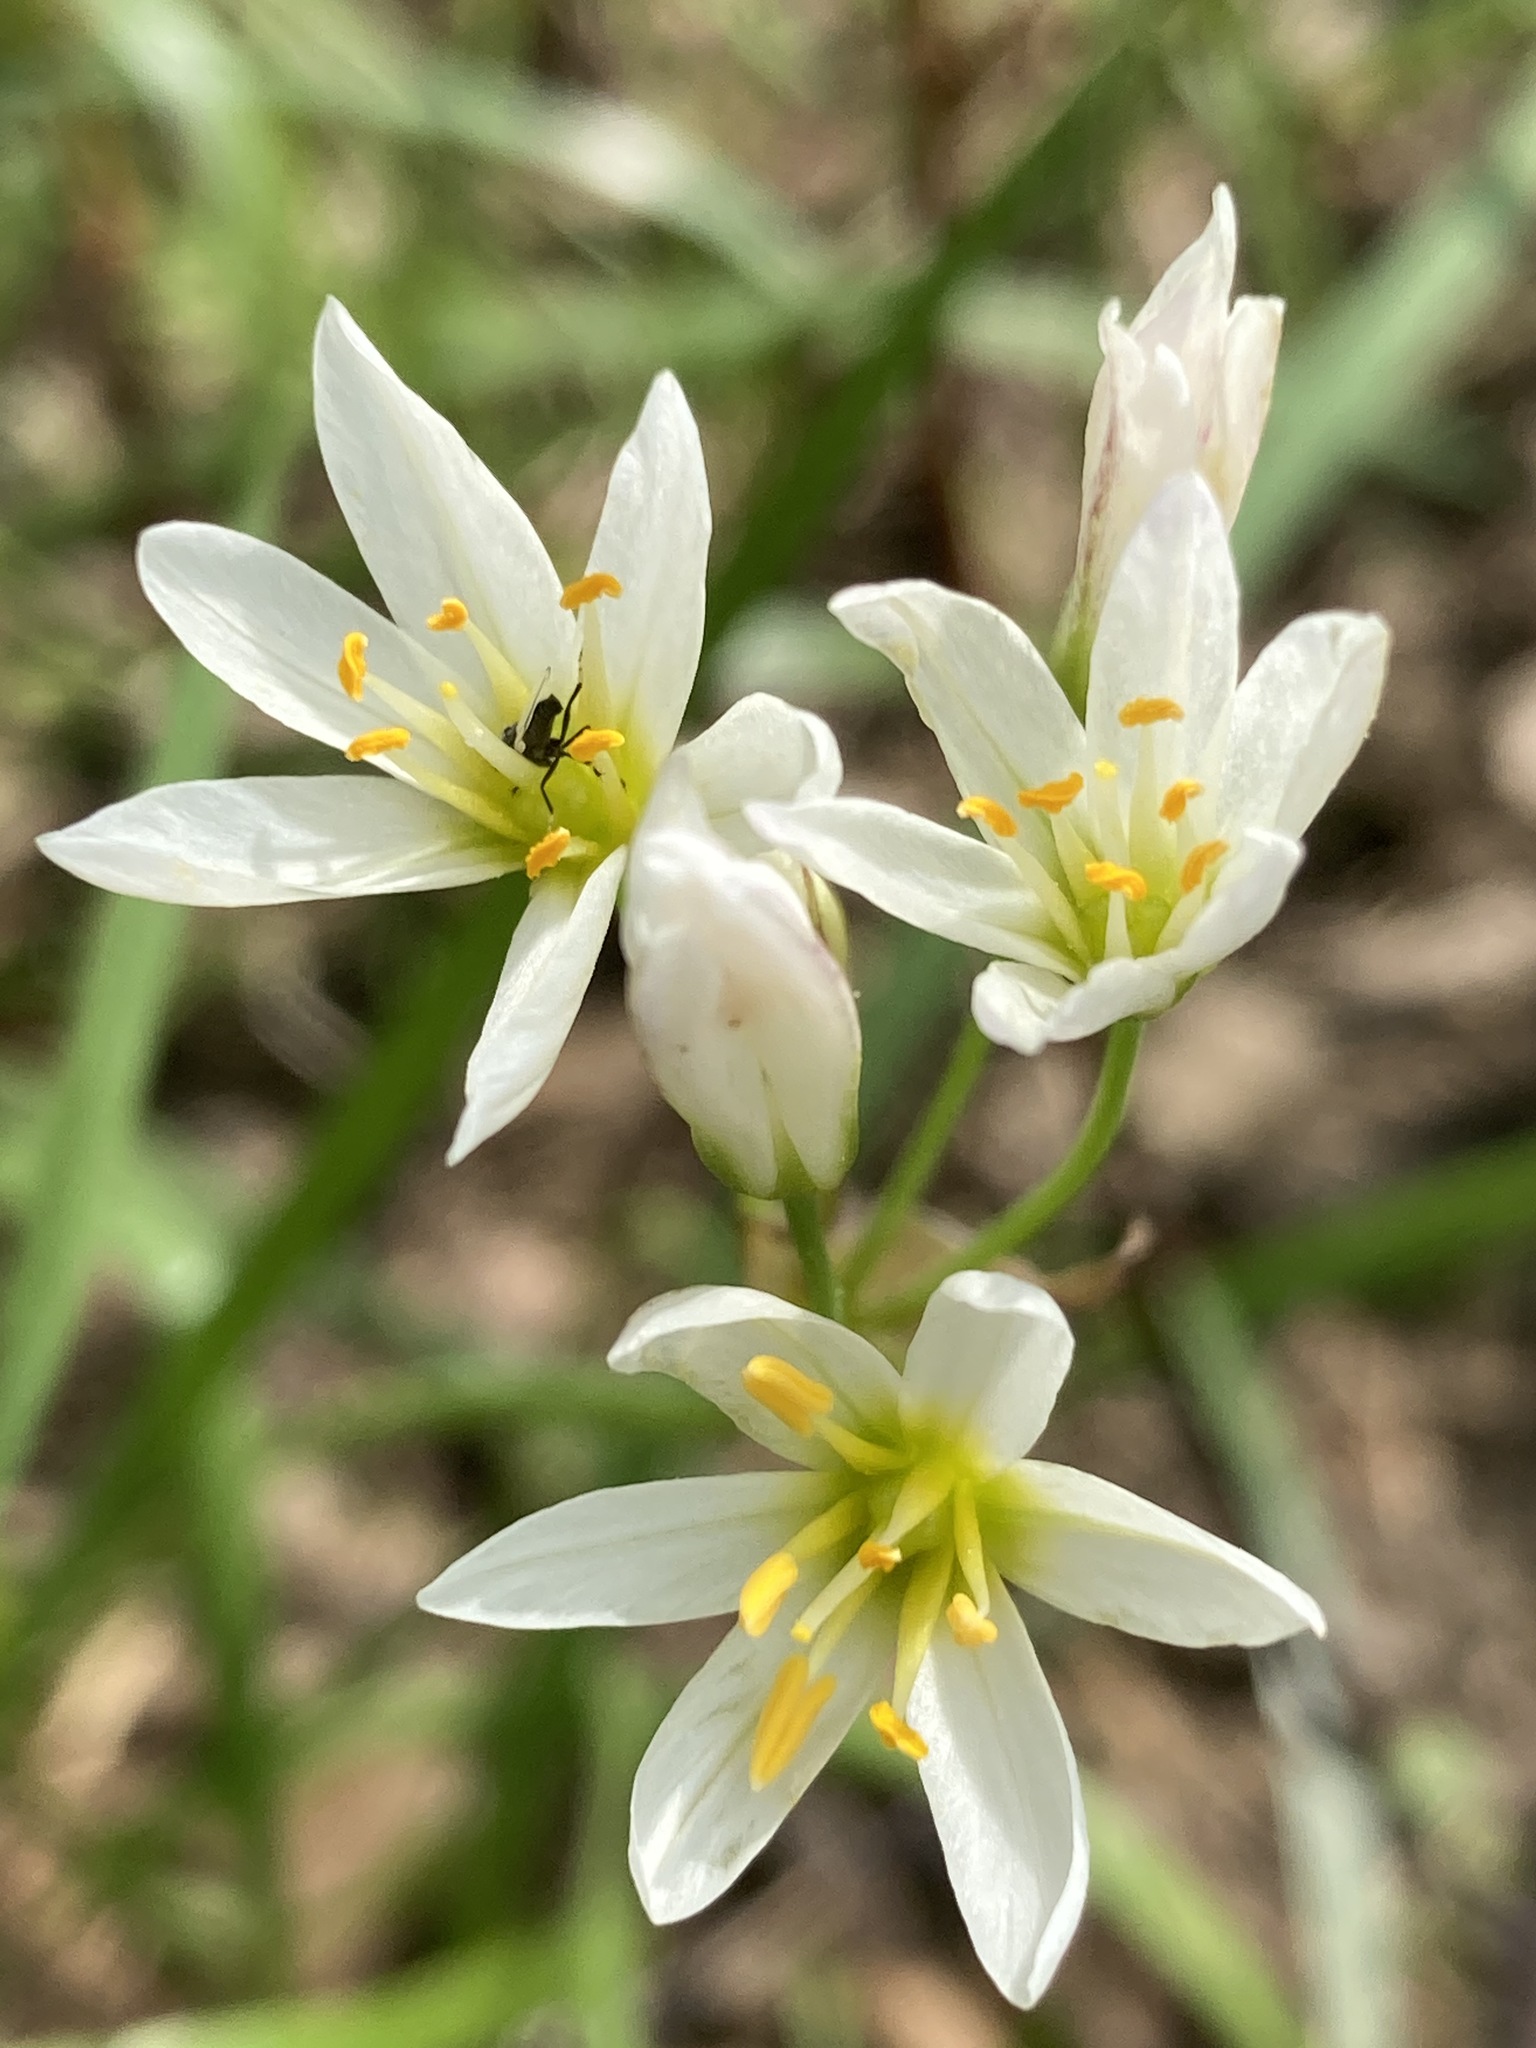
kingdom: Plantae
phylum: Tracheophyta
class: Liliopsida
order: Asparagales
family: Amaryllidaceae
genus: Nothoscordum
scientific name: Nothoscordum bivalve
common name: Crow-poison
